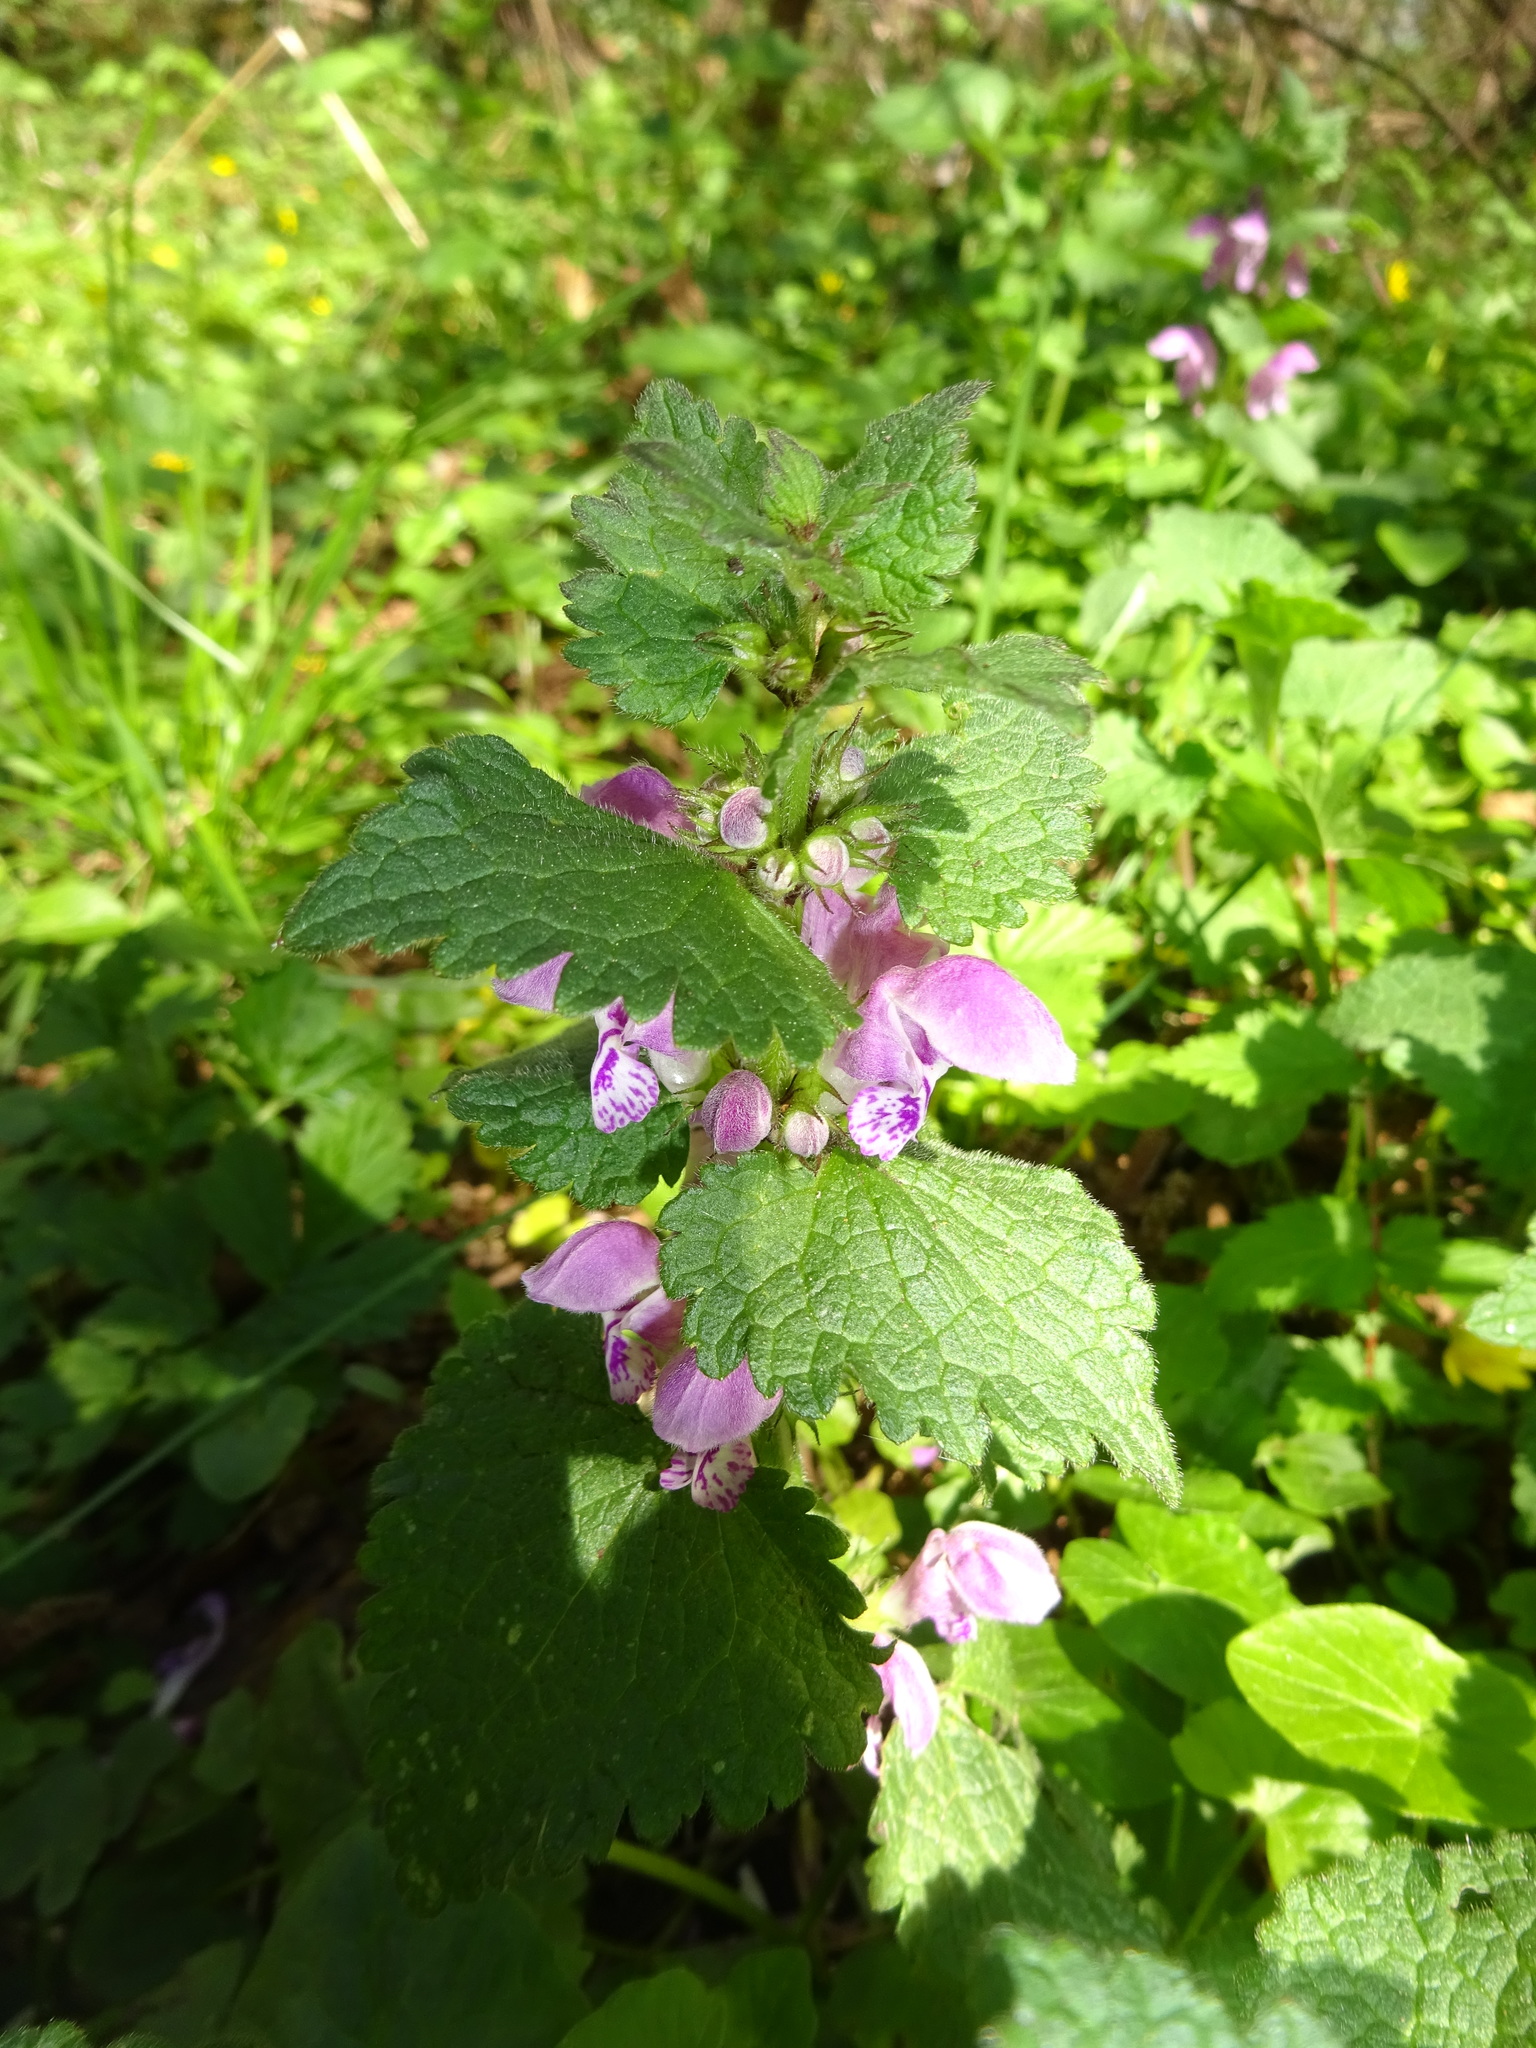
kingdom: Plantae
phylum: Tracheophyta
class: Magnoliopsida
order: Lamiales
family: Lamiaceae
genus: Lamium
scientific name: Lamium maculatum
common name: Spotted dead-nettle
